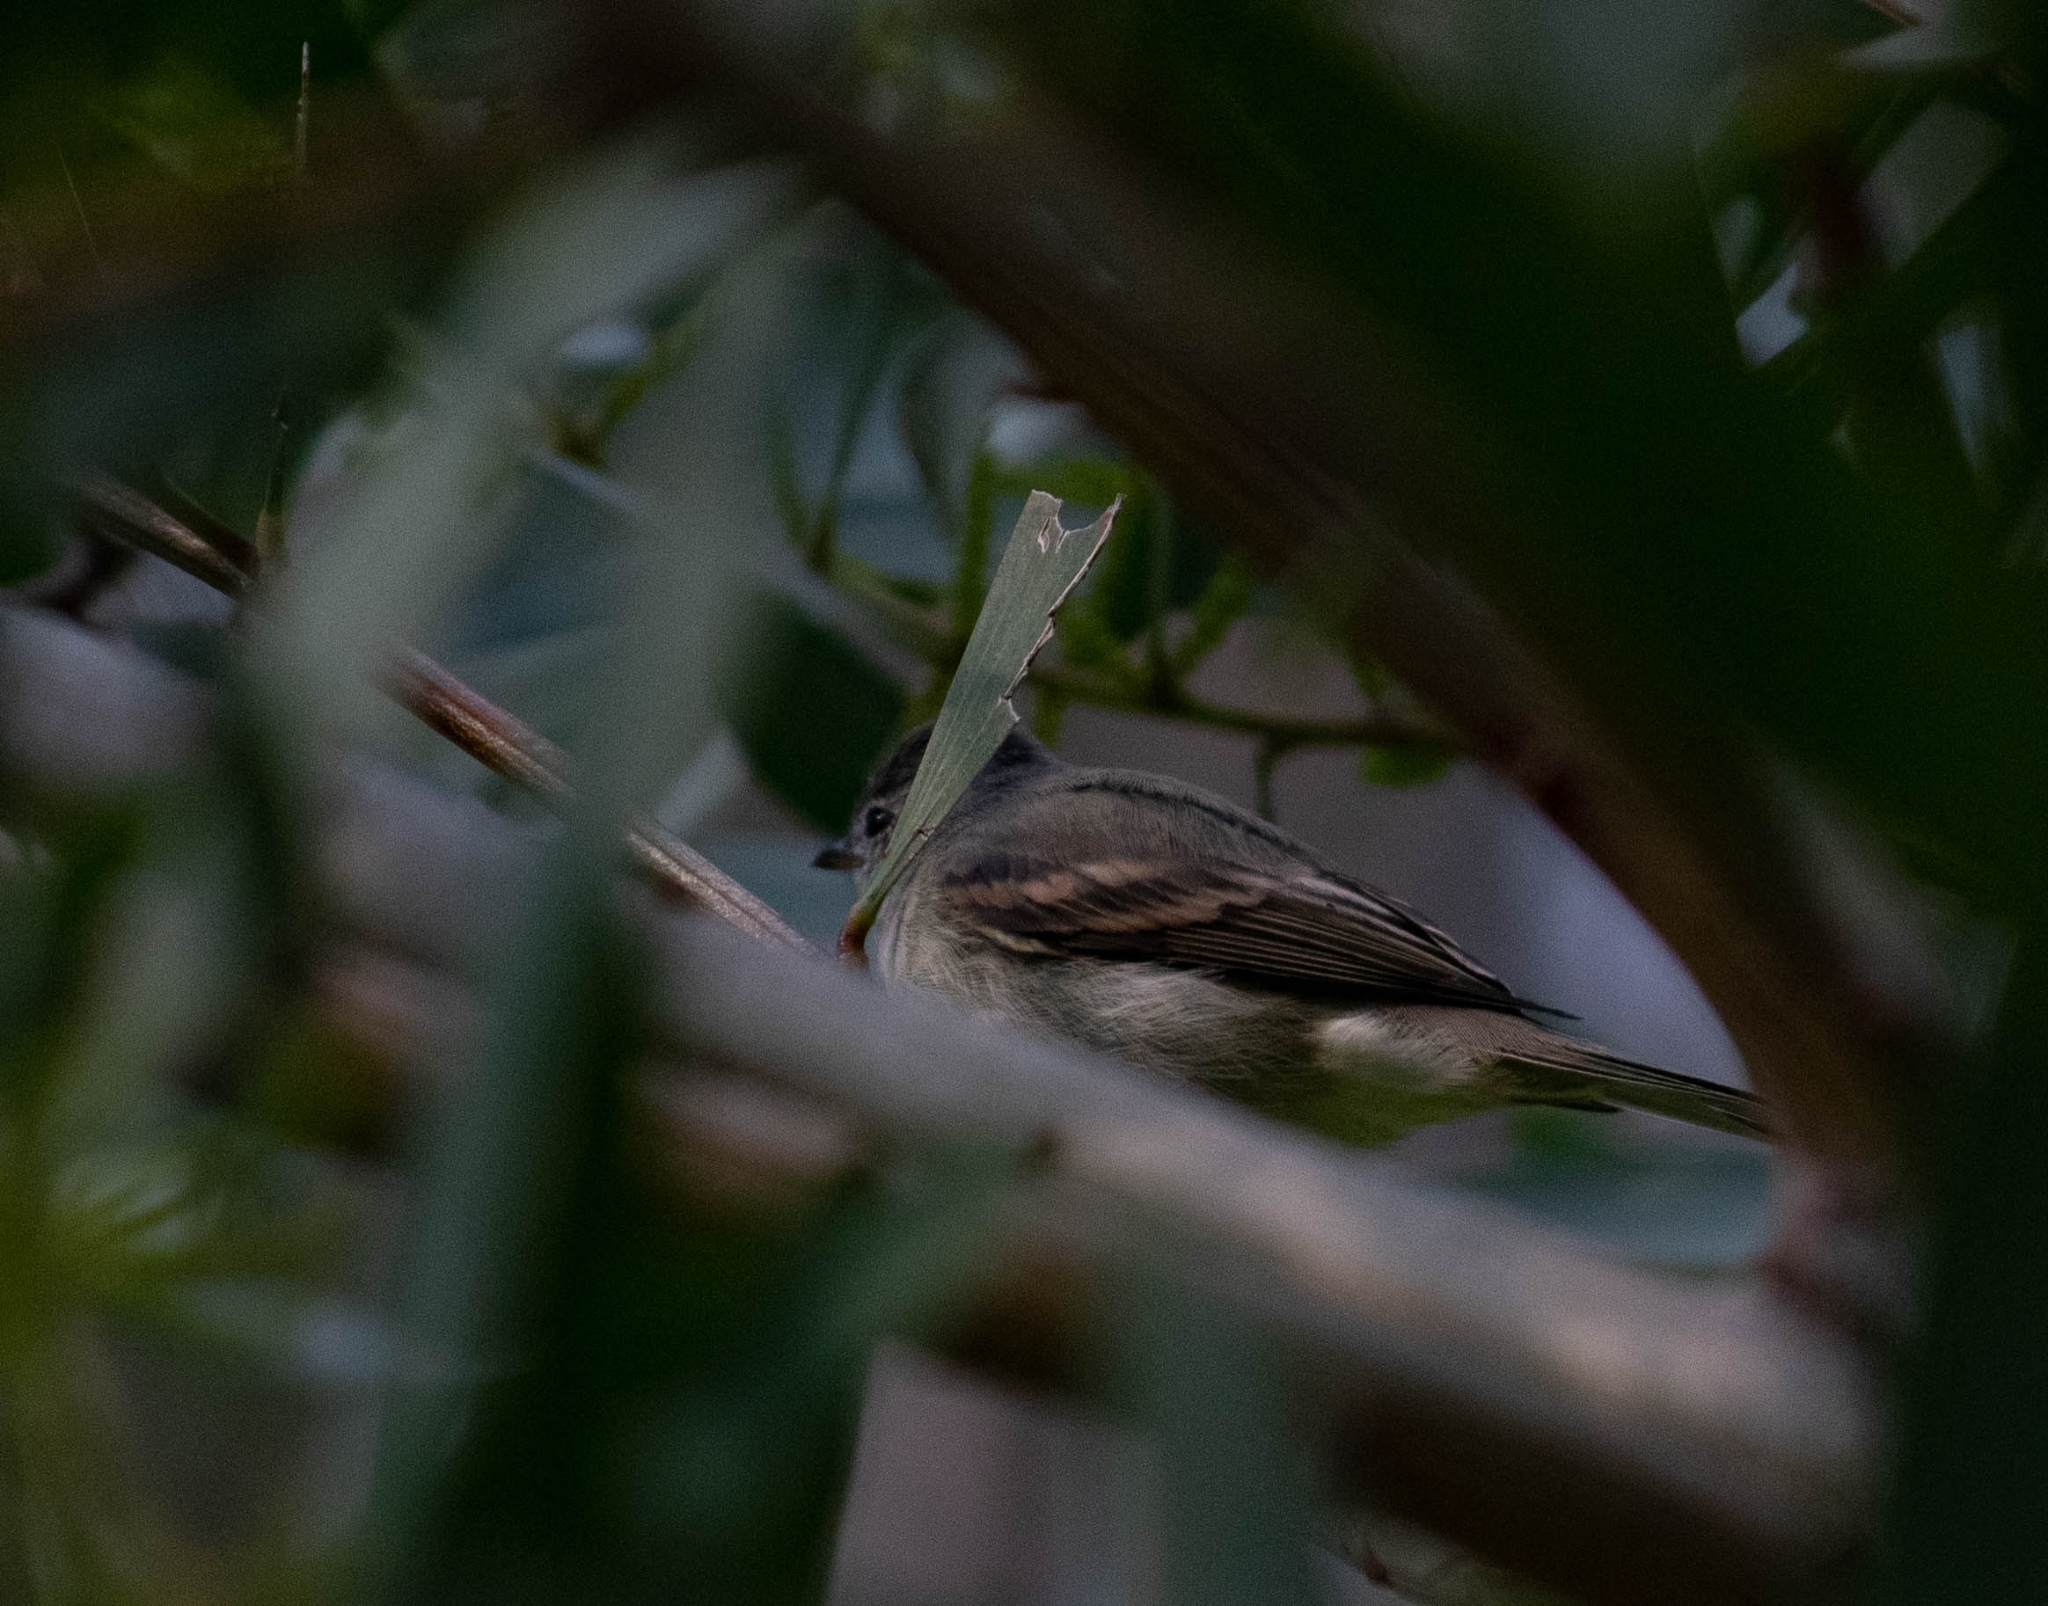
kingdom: Animalia
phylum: Chordata
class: Aves
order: Passeriformes
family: Tyrannidae
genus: Camptostoma
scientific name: Camptostoma obsoletum
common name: Southern beardless-tyrannulet
